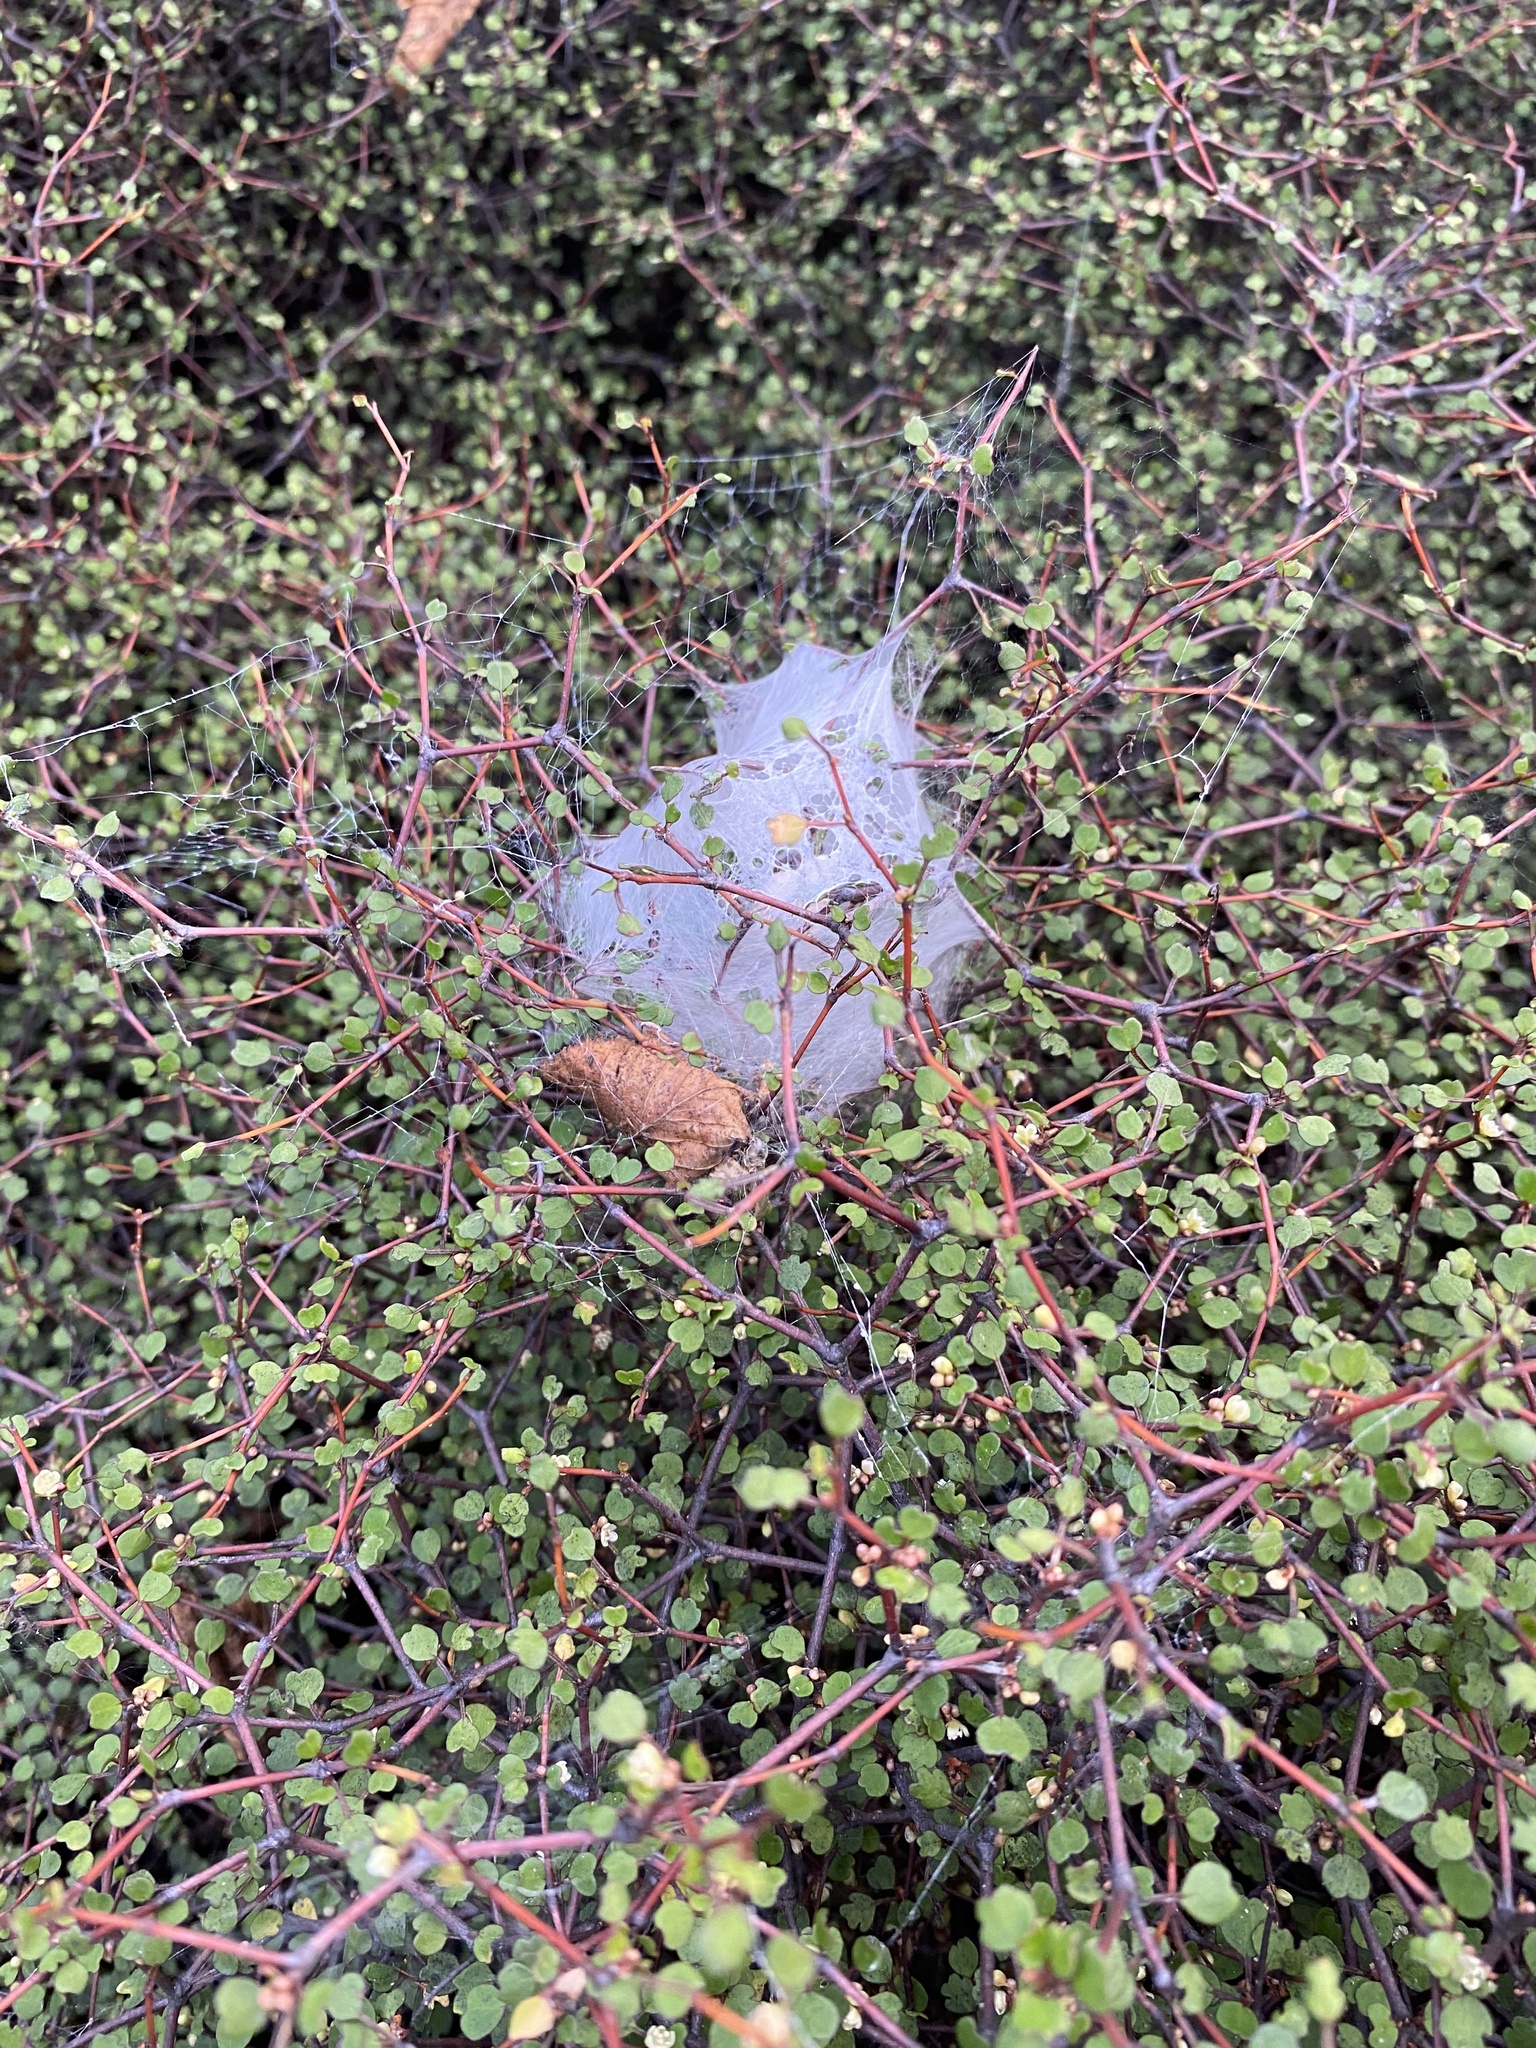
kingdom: Animalia
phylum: Arthropoda
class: Arachnida
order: Araneae
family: Pisauridae
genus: Dolomedes
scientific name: Dolomedes
